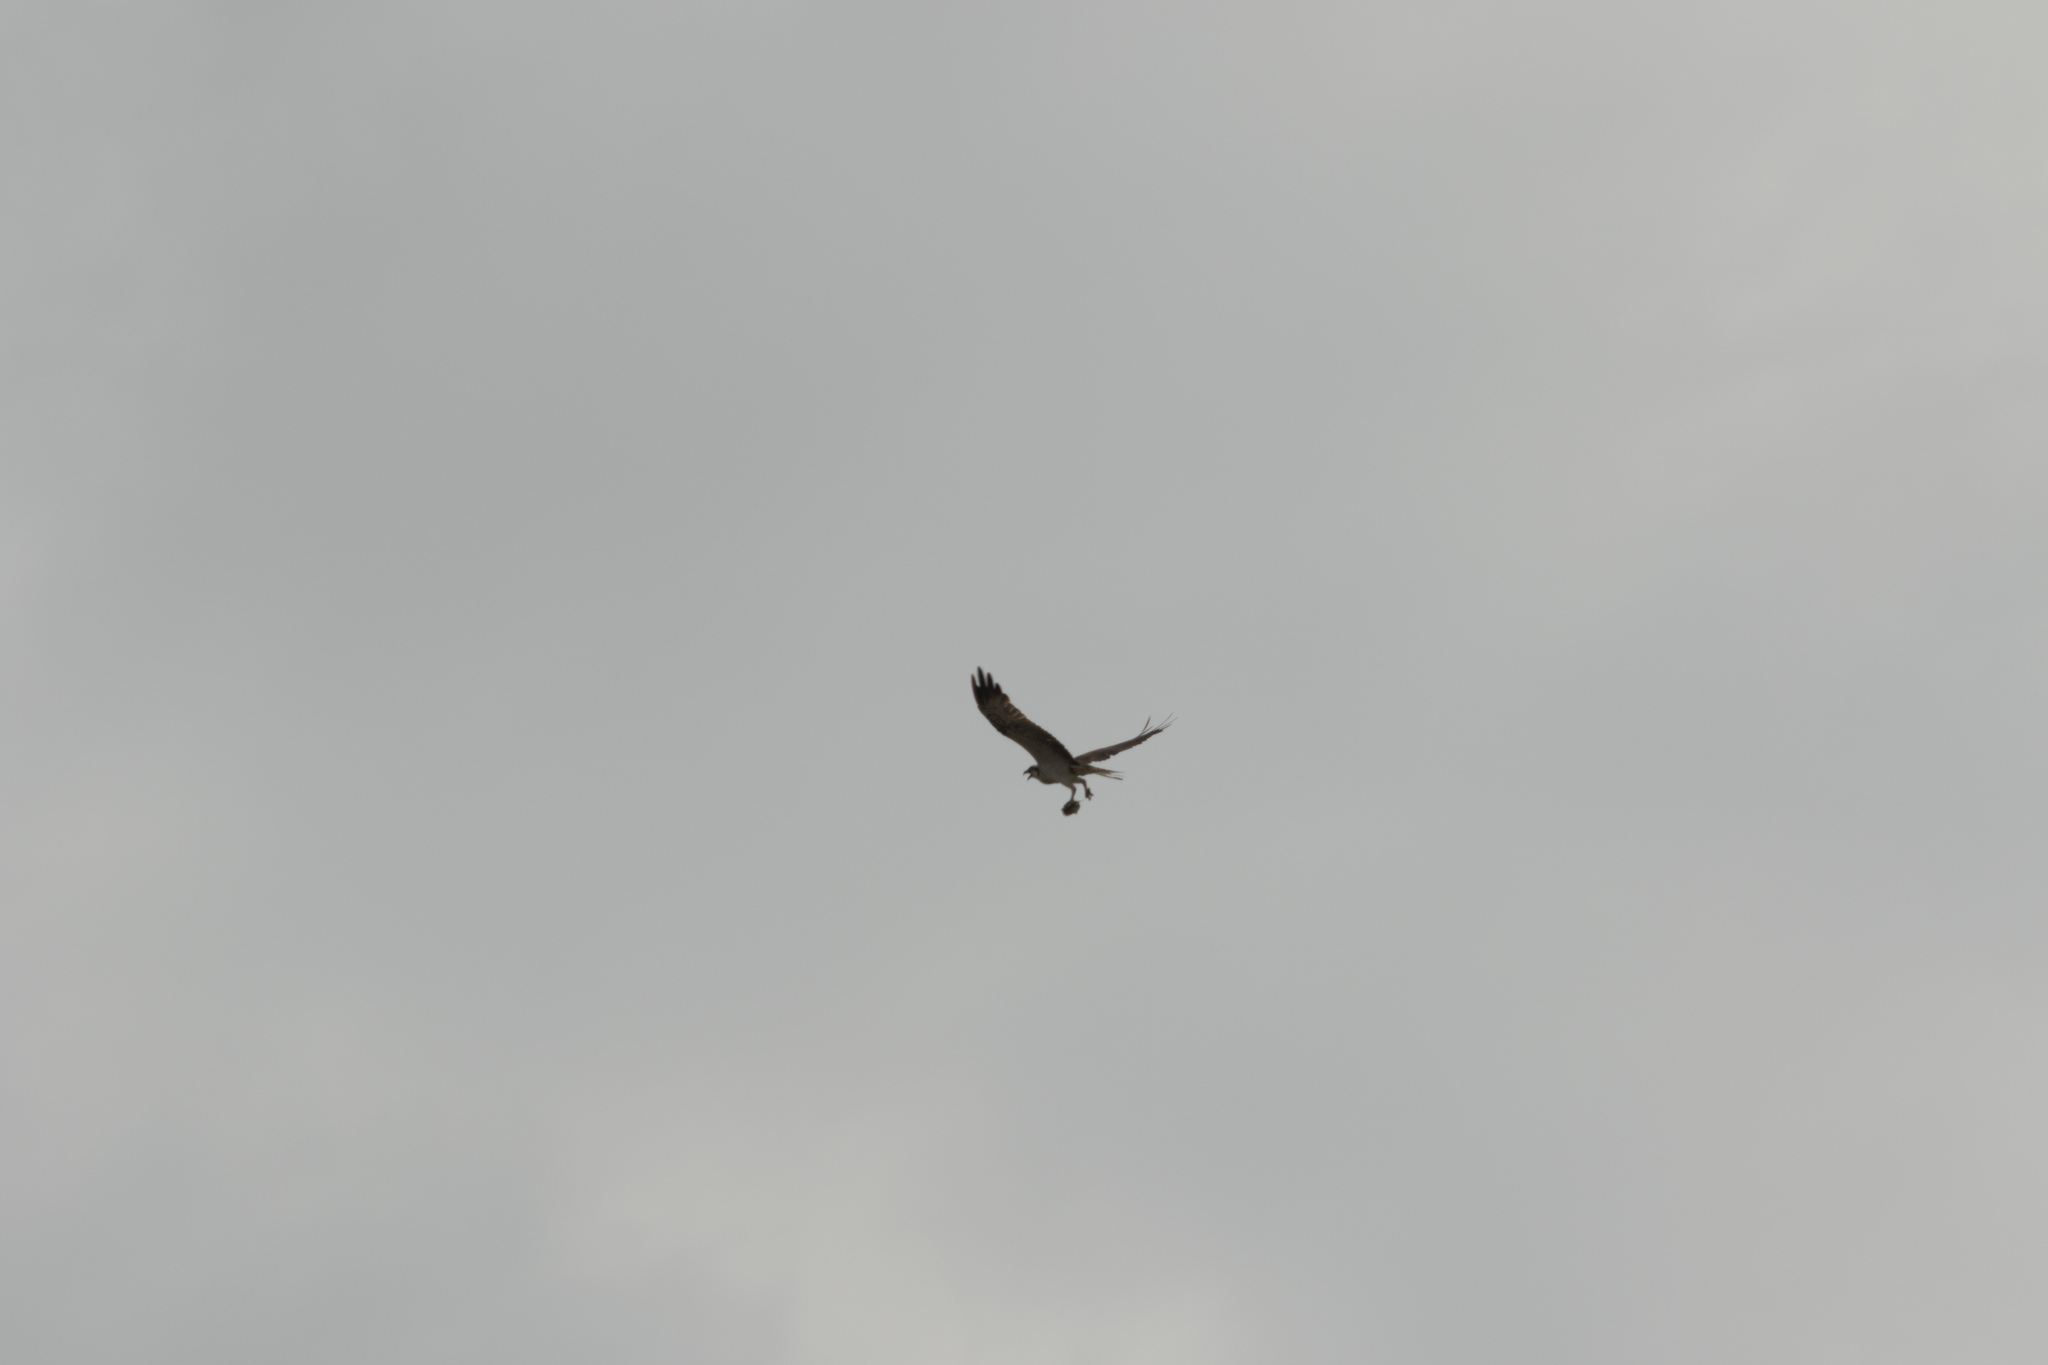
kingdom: Animalia
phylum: Chordata
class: Aves
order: Accipitriformes
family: Pandionidae
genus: Pandion
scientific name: Pandion haliaetus
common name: Osprey
